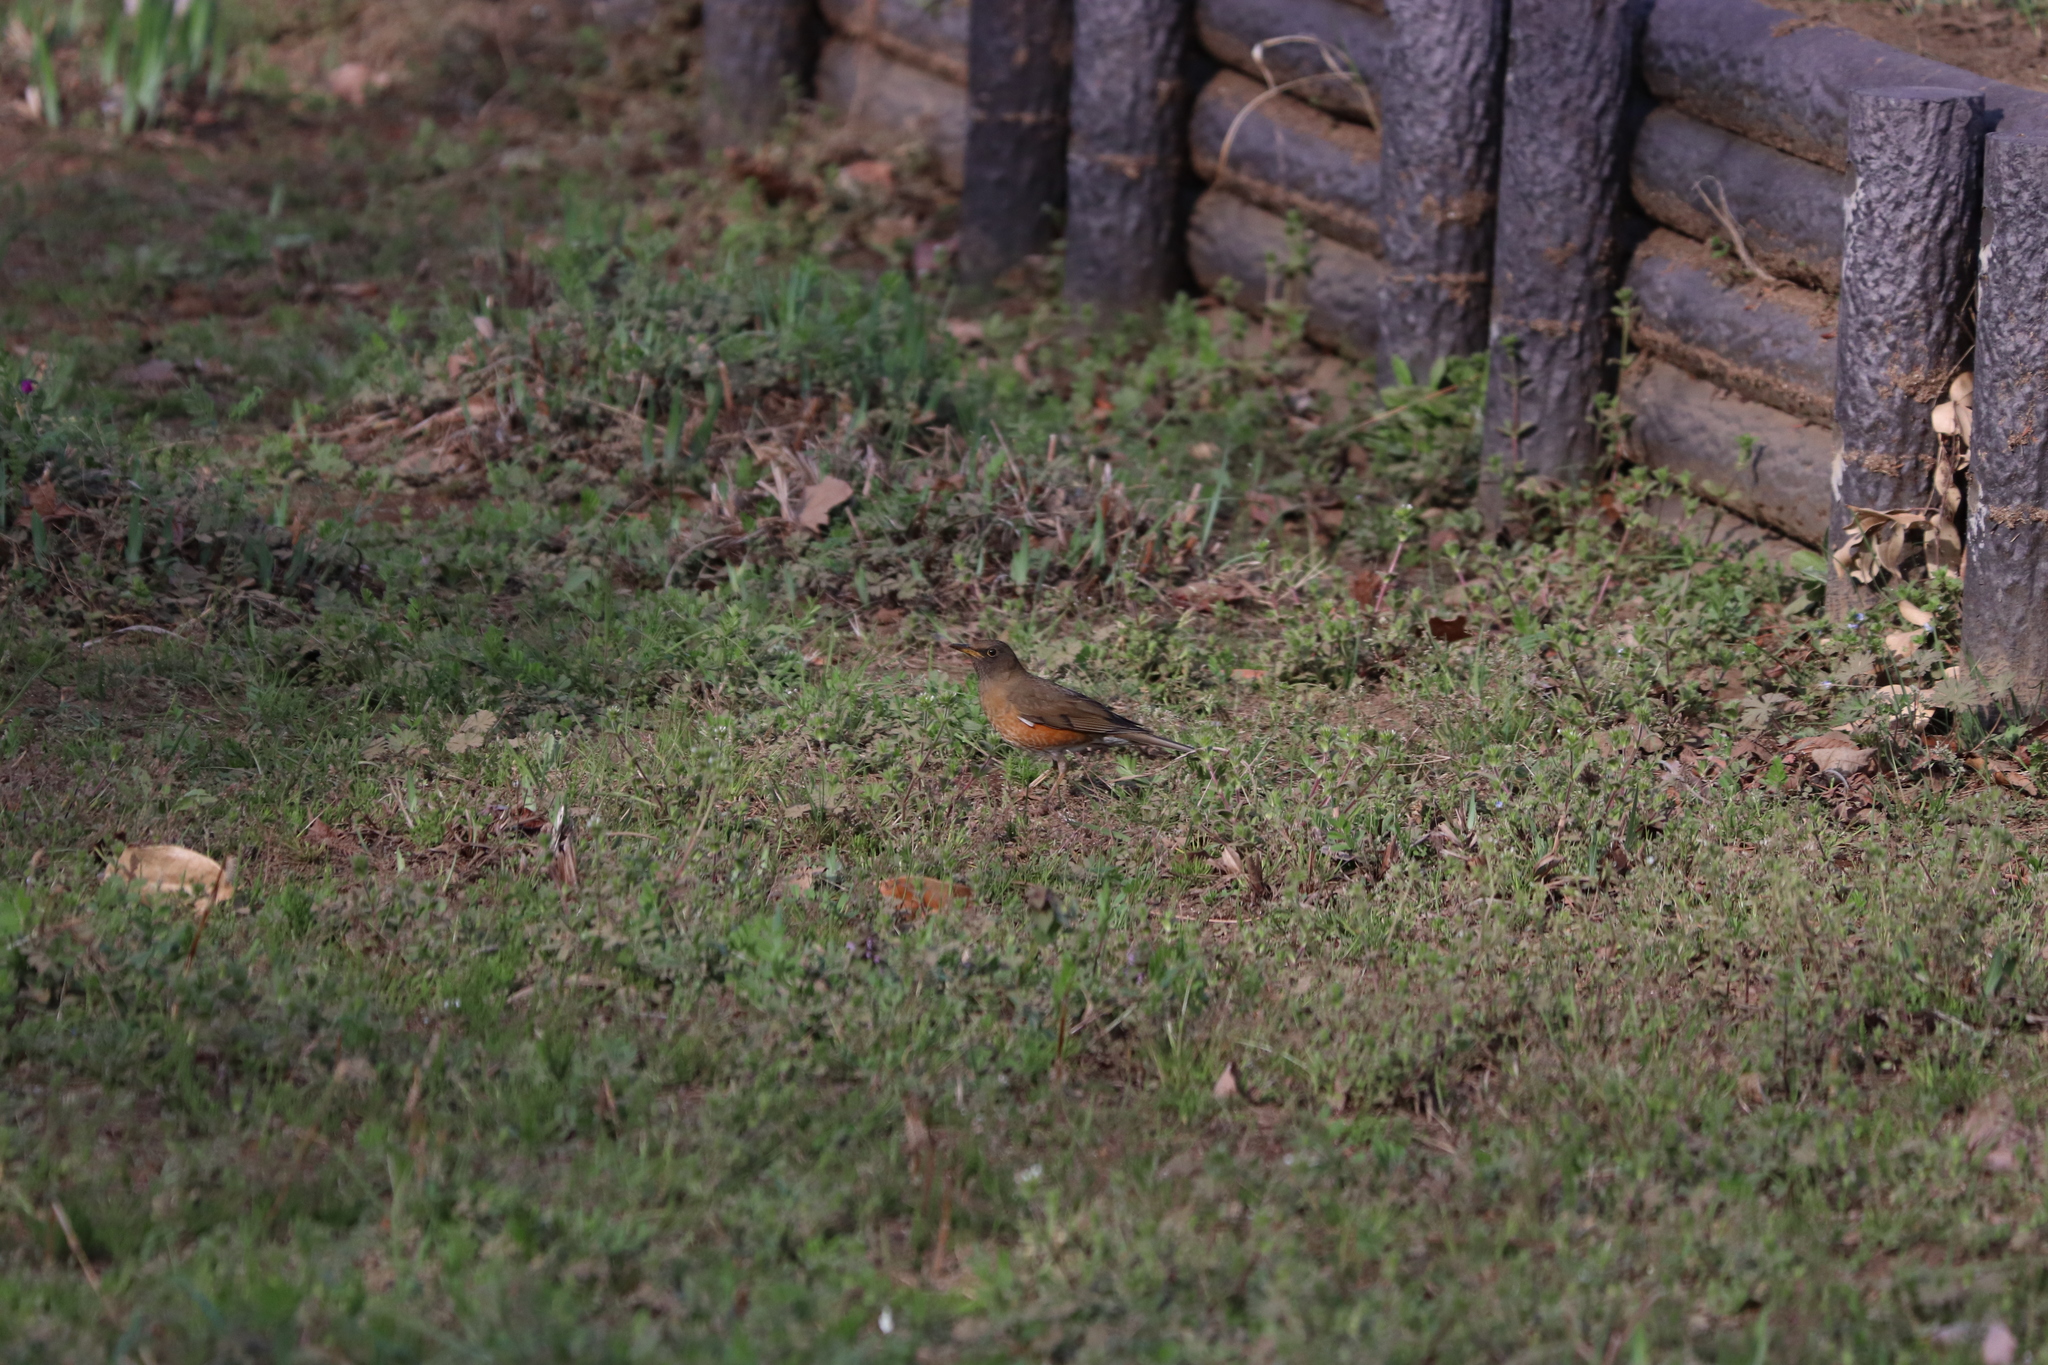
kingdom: Animalia
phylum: Chordata
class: Aves
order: Passeriformes
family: Turdidae
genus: Turdus
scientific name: Turdus chrysolaus
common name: Brown-headed thrush
